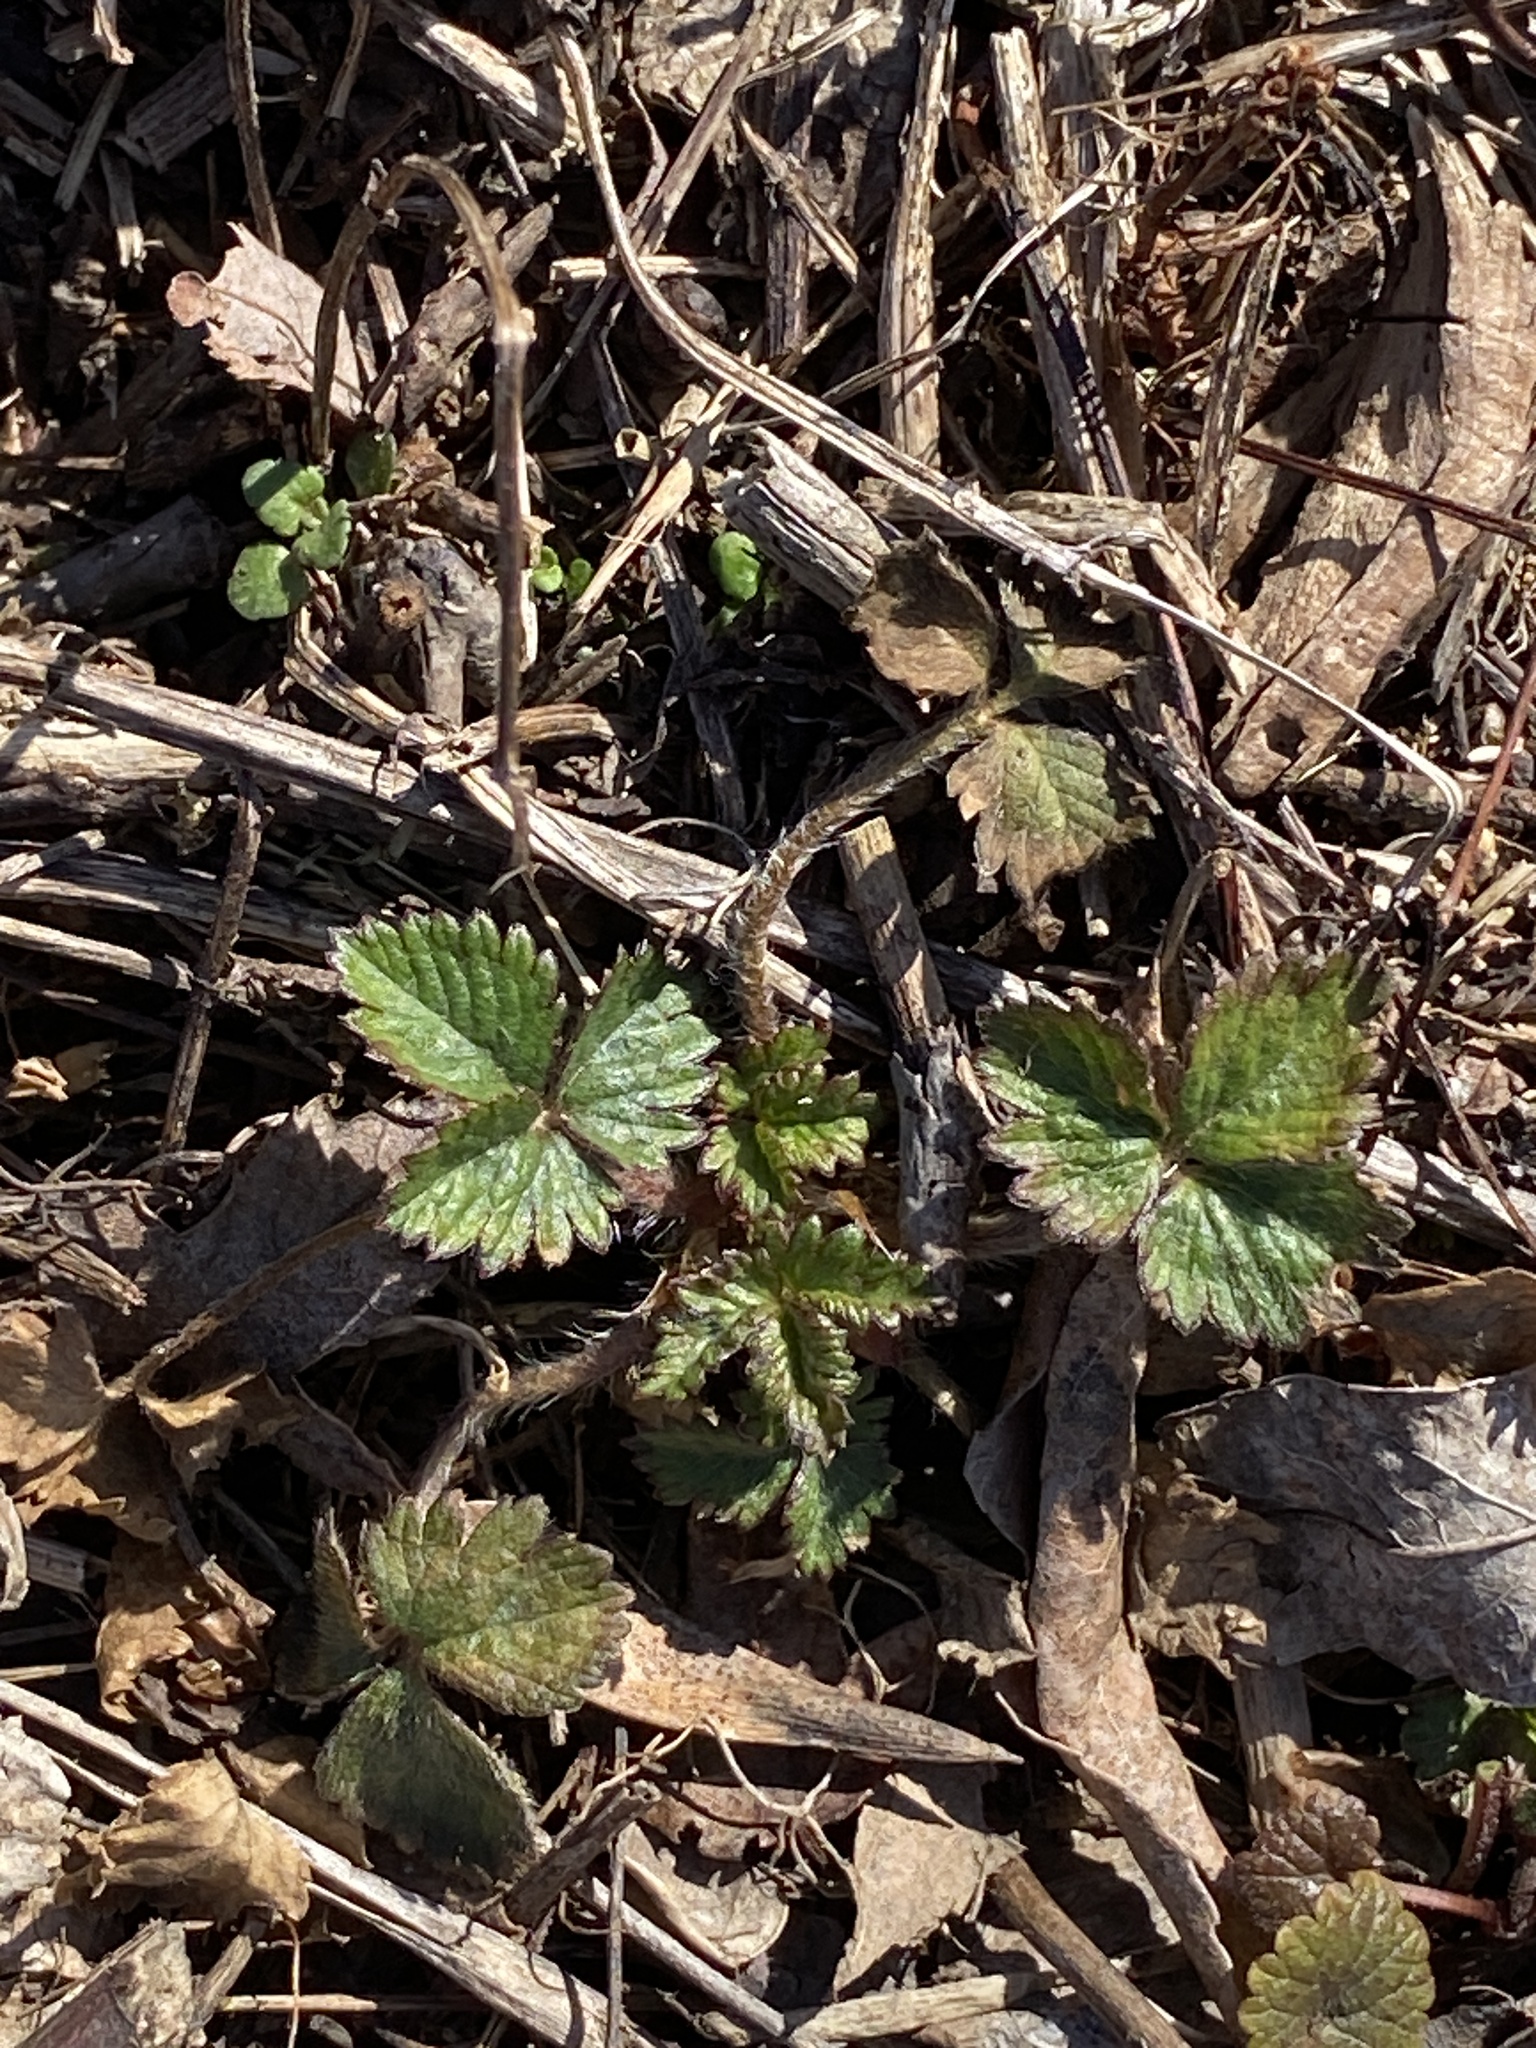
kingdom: Plantae
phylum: Tracheophyta
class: Magnoliopsida
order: Rosales
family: Rosaceae
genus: Potentilla
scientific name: Potentilla indica
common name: Yellow-flowered strawberry
